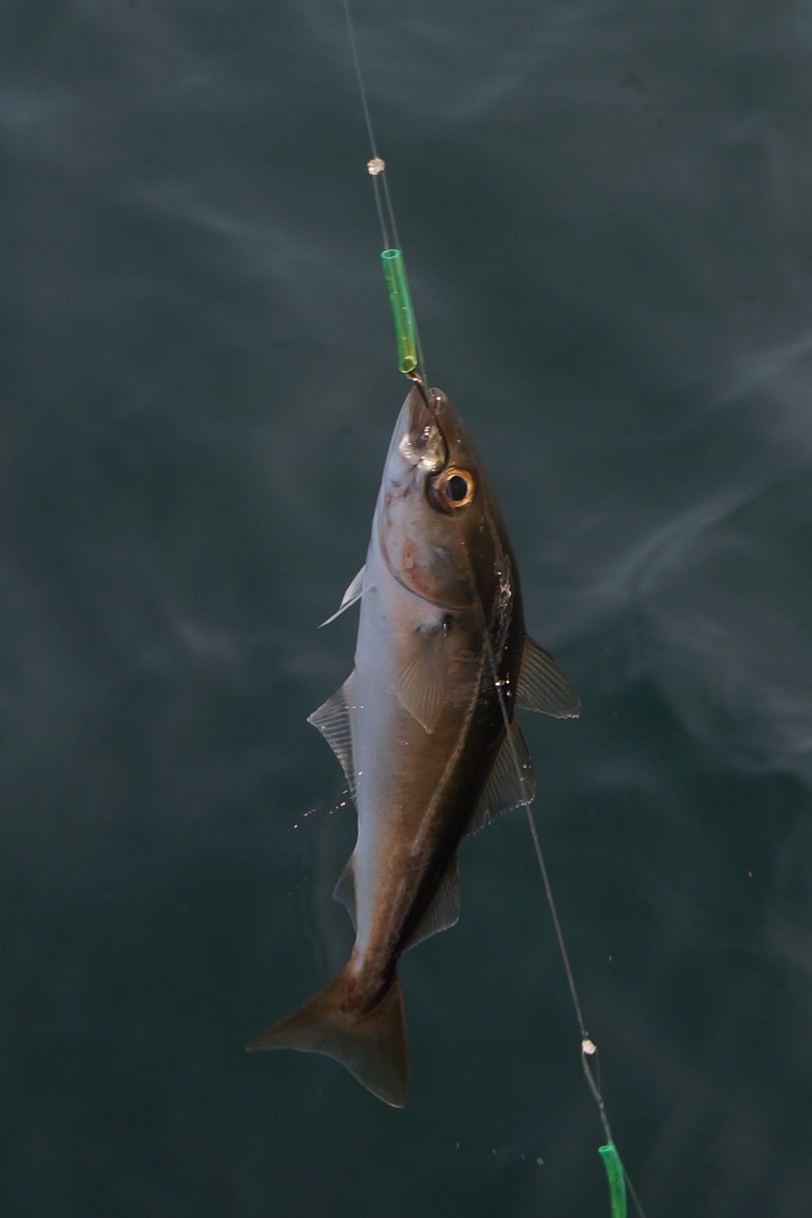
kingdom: Animalia
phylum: Chordata
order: Gadiformes
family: Gadidae
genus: Pollachius
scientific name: Pollachius virens
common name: Saithe
